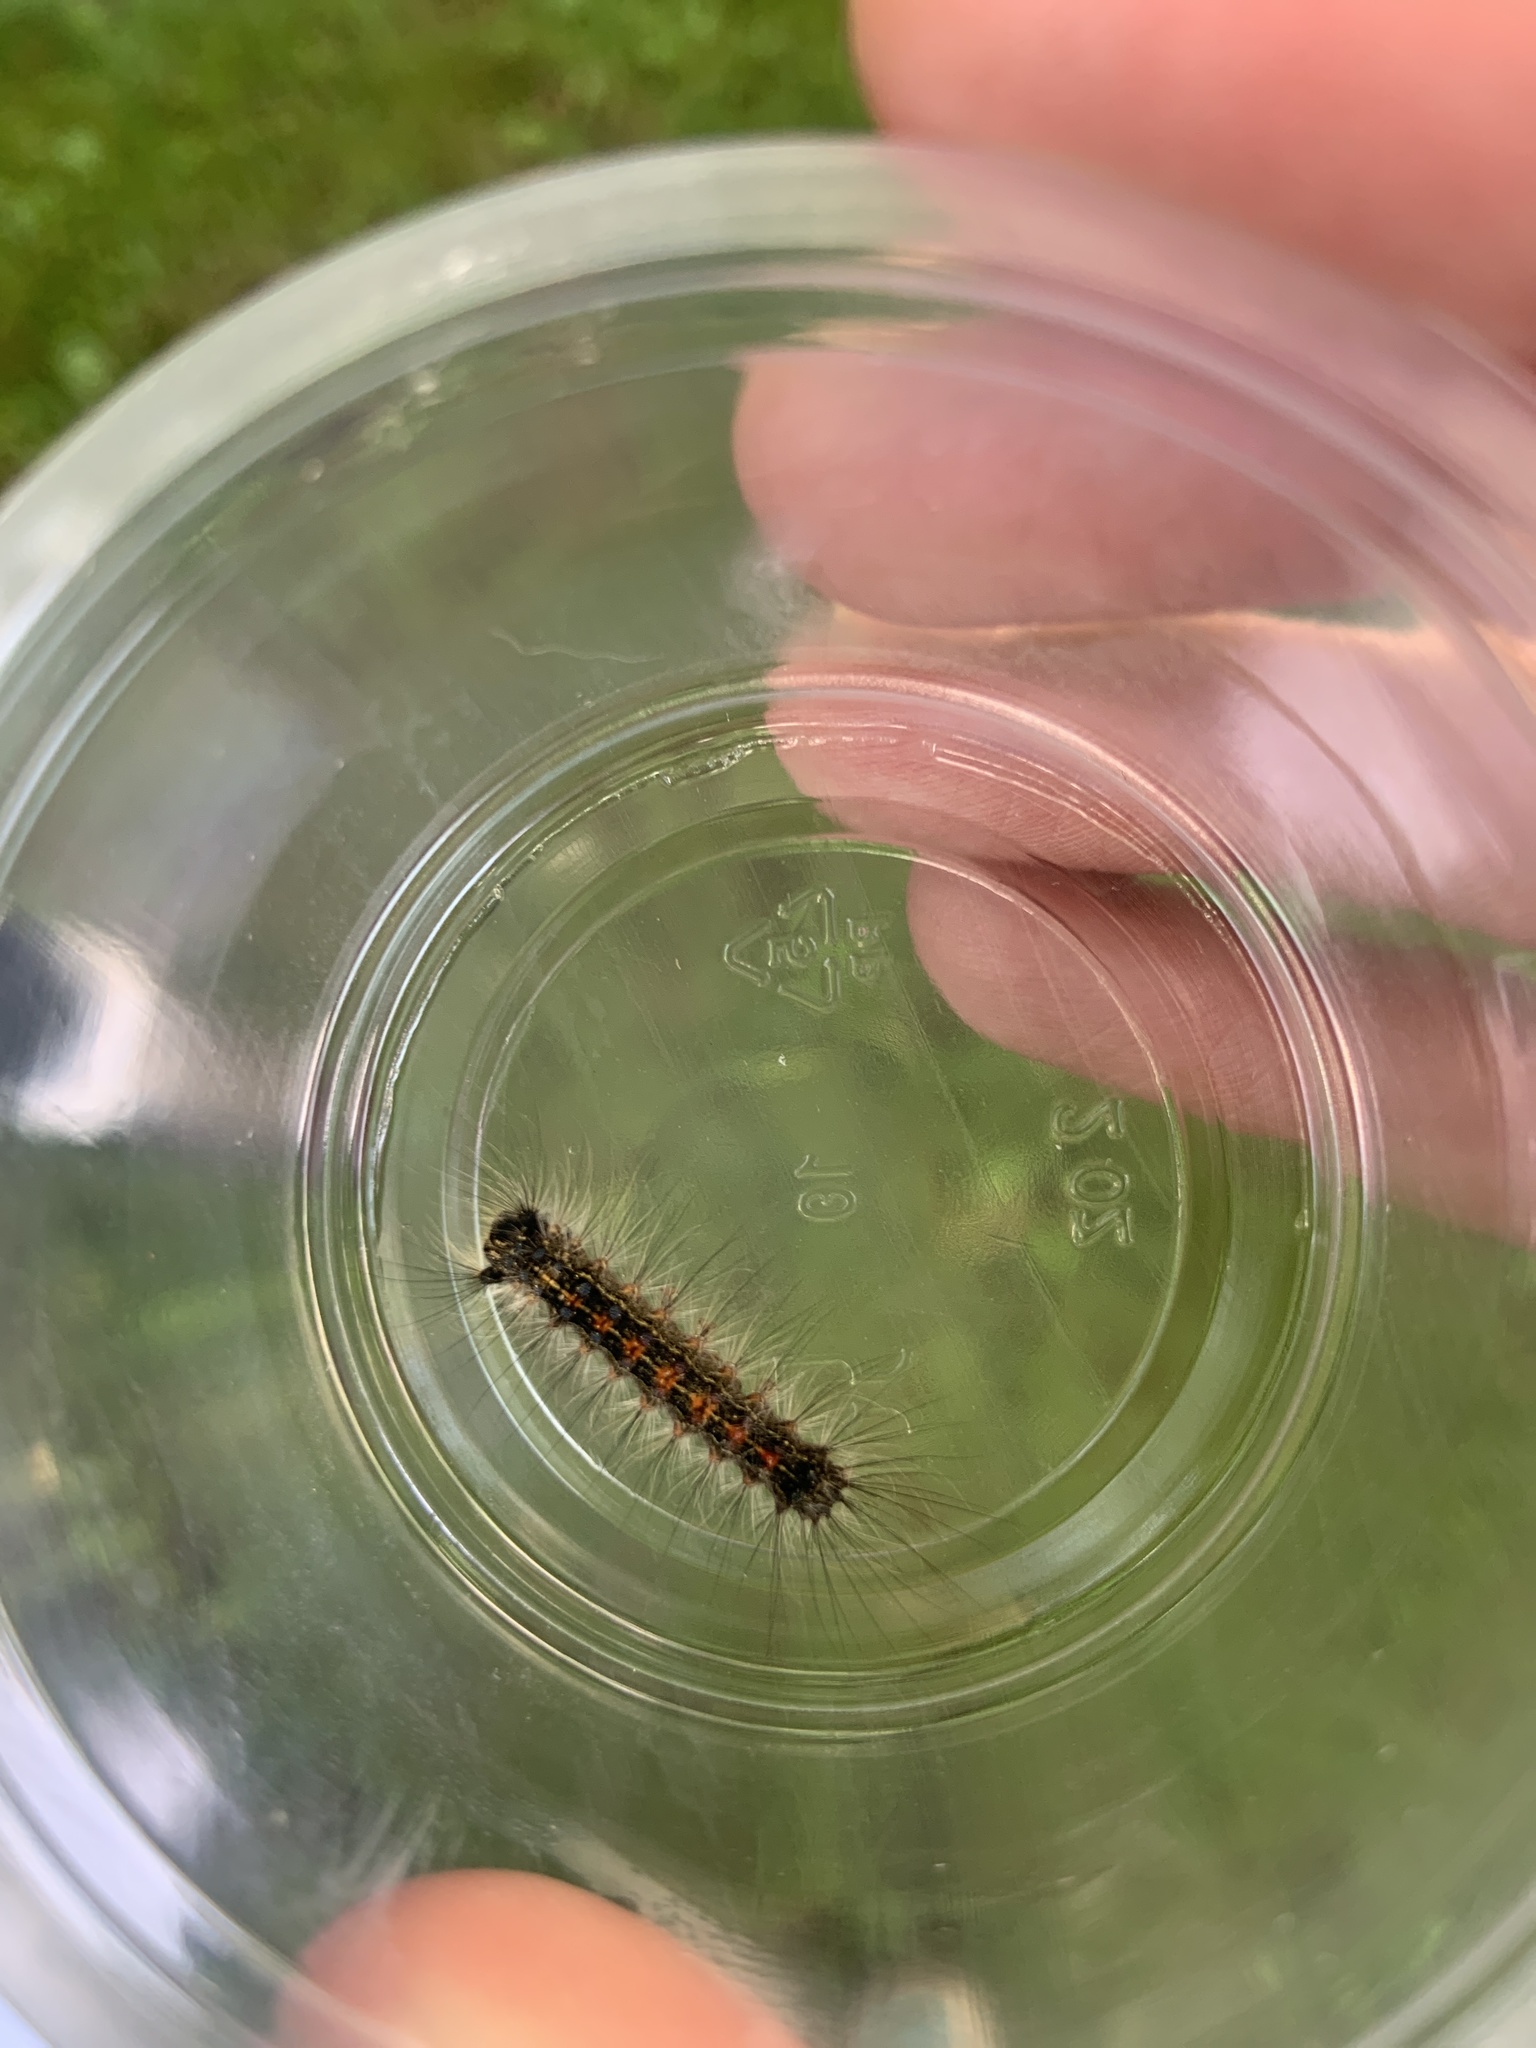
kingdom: Animalia
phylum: Arthropoda
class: Insecta
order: Lepidoptera
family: Erebidae
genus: Lymantria
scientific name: Lymantria dispar
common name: Gypsy moth
